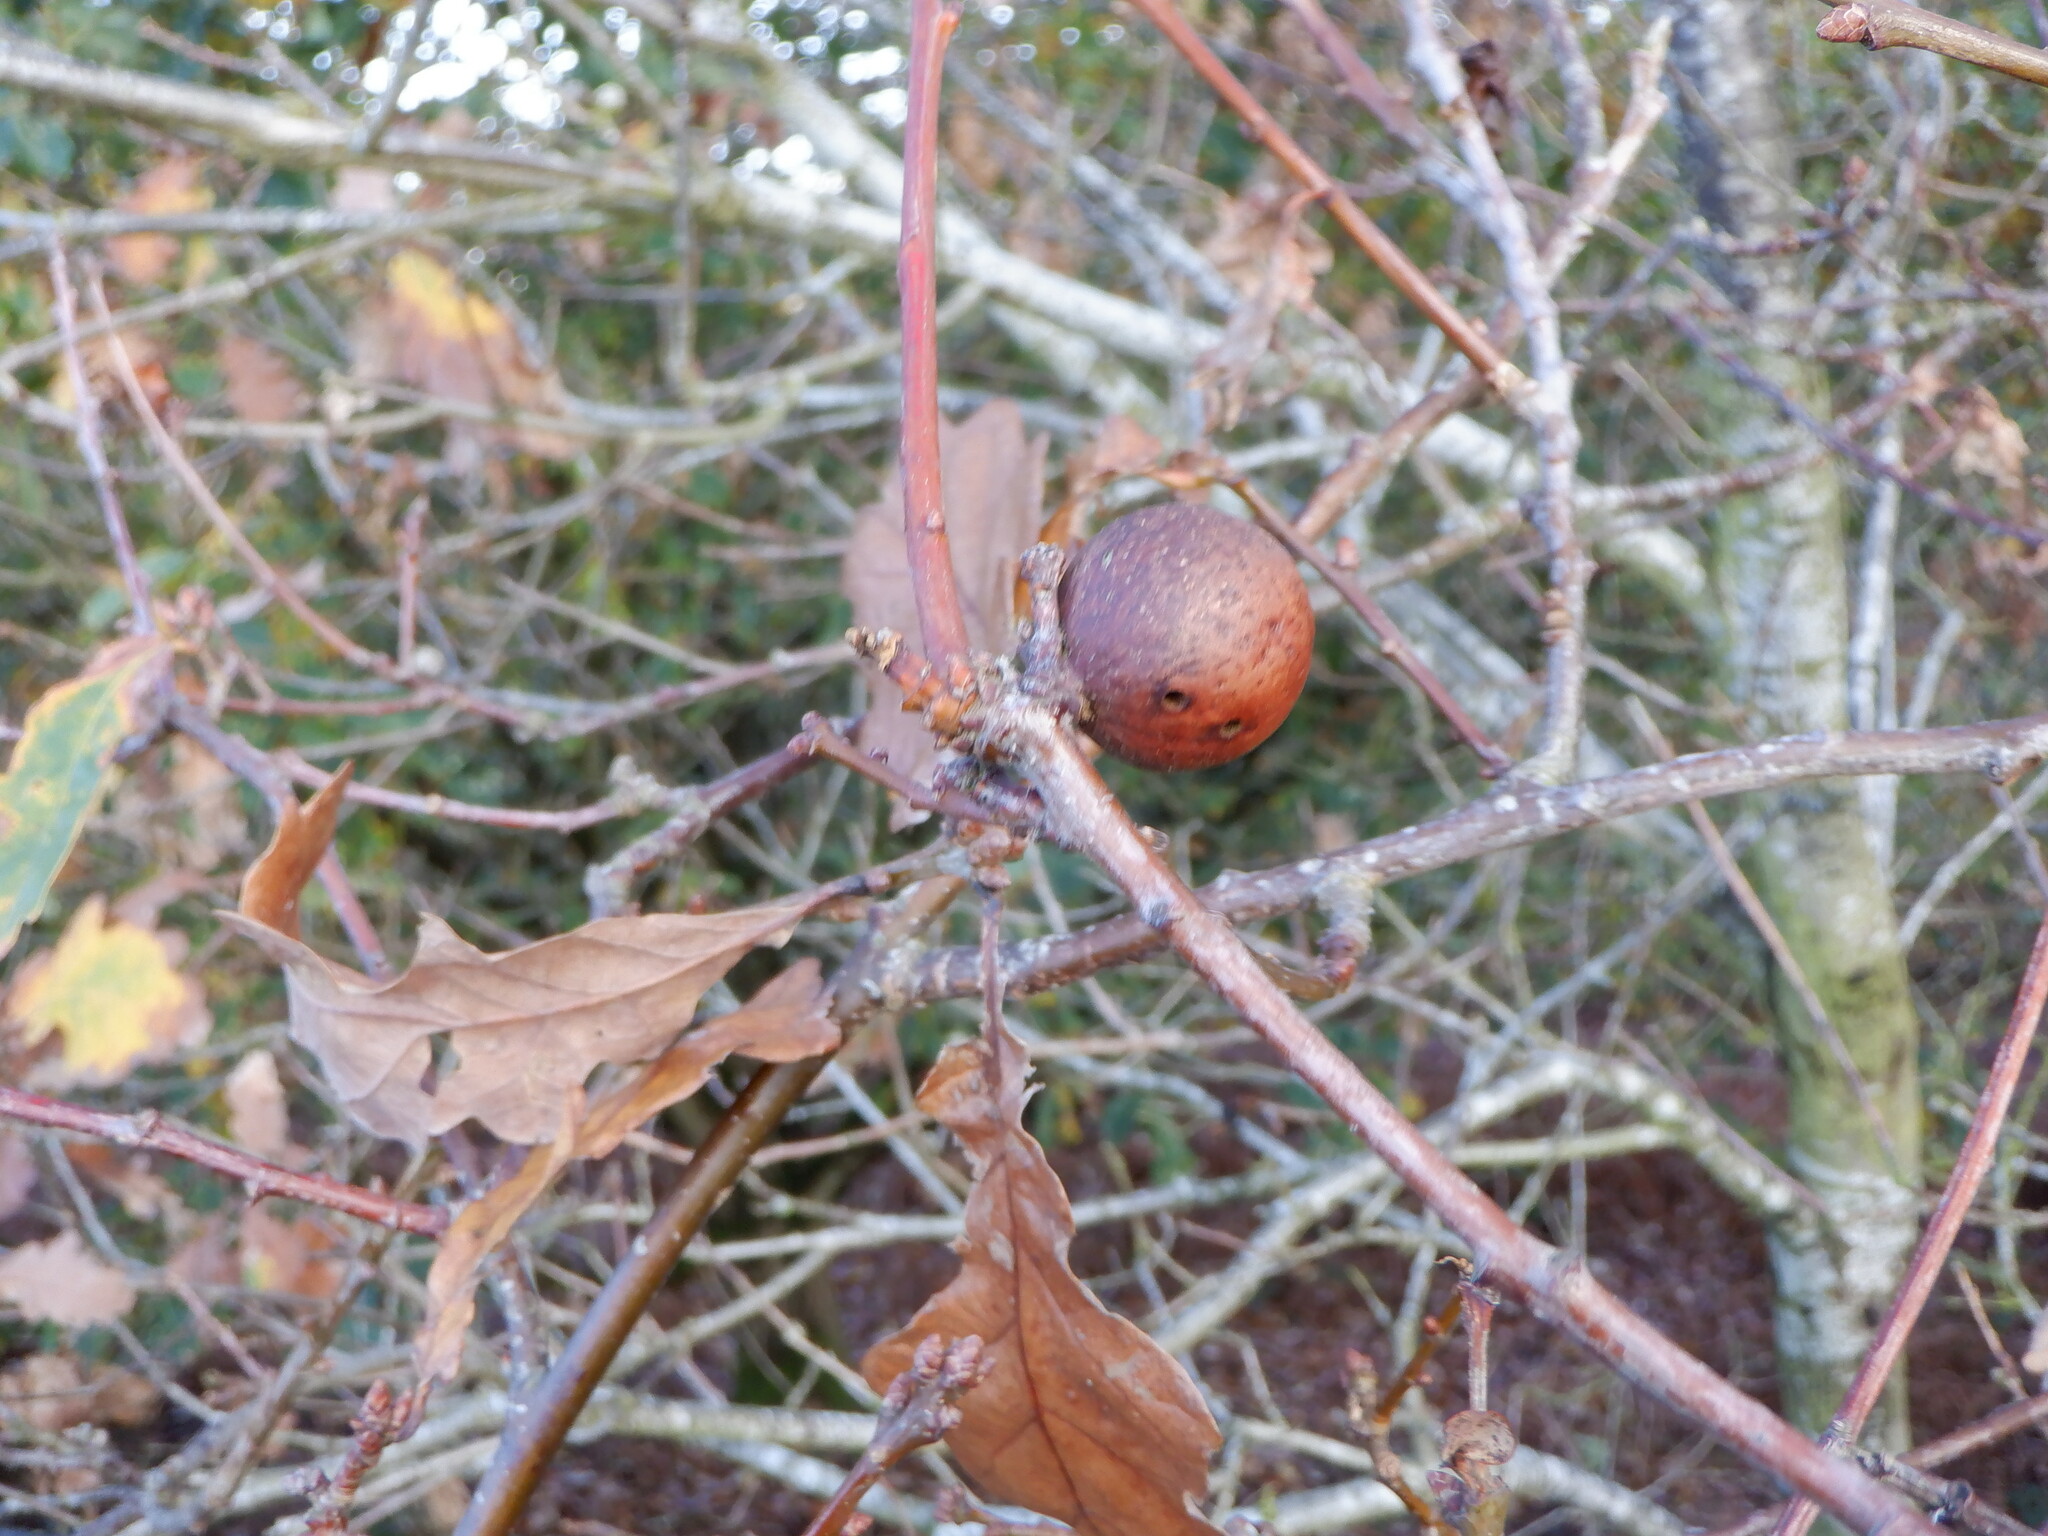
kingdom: Animalia
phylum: Arthropoda
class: Insecta
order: Hymenoptera
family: Cynipidae
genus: Andricus
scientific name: Andricus kollari
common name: Marble gall
